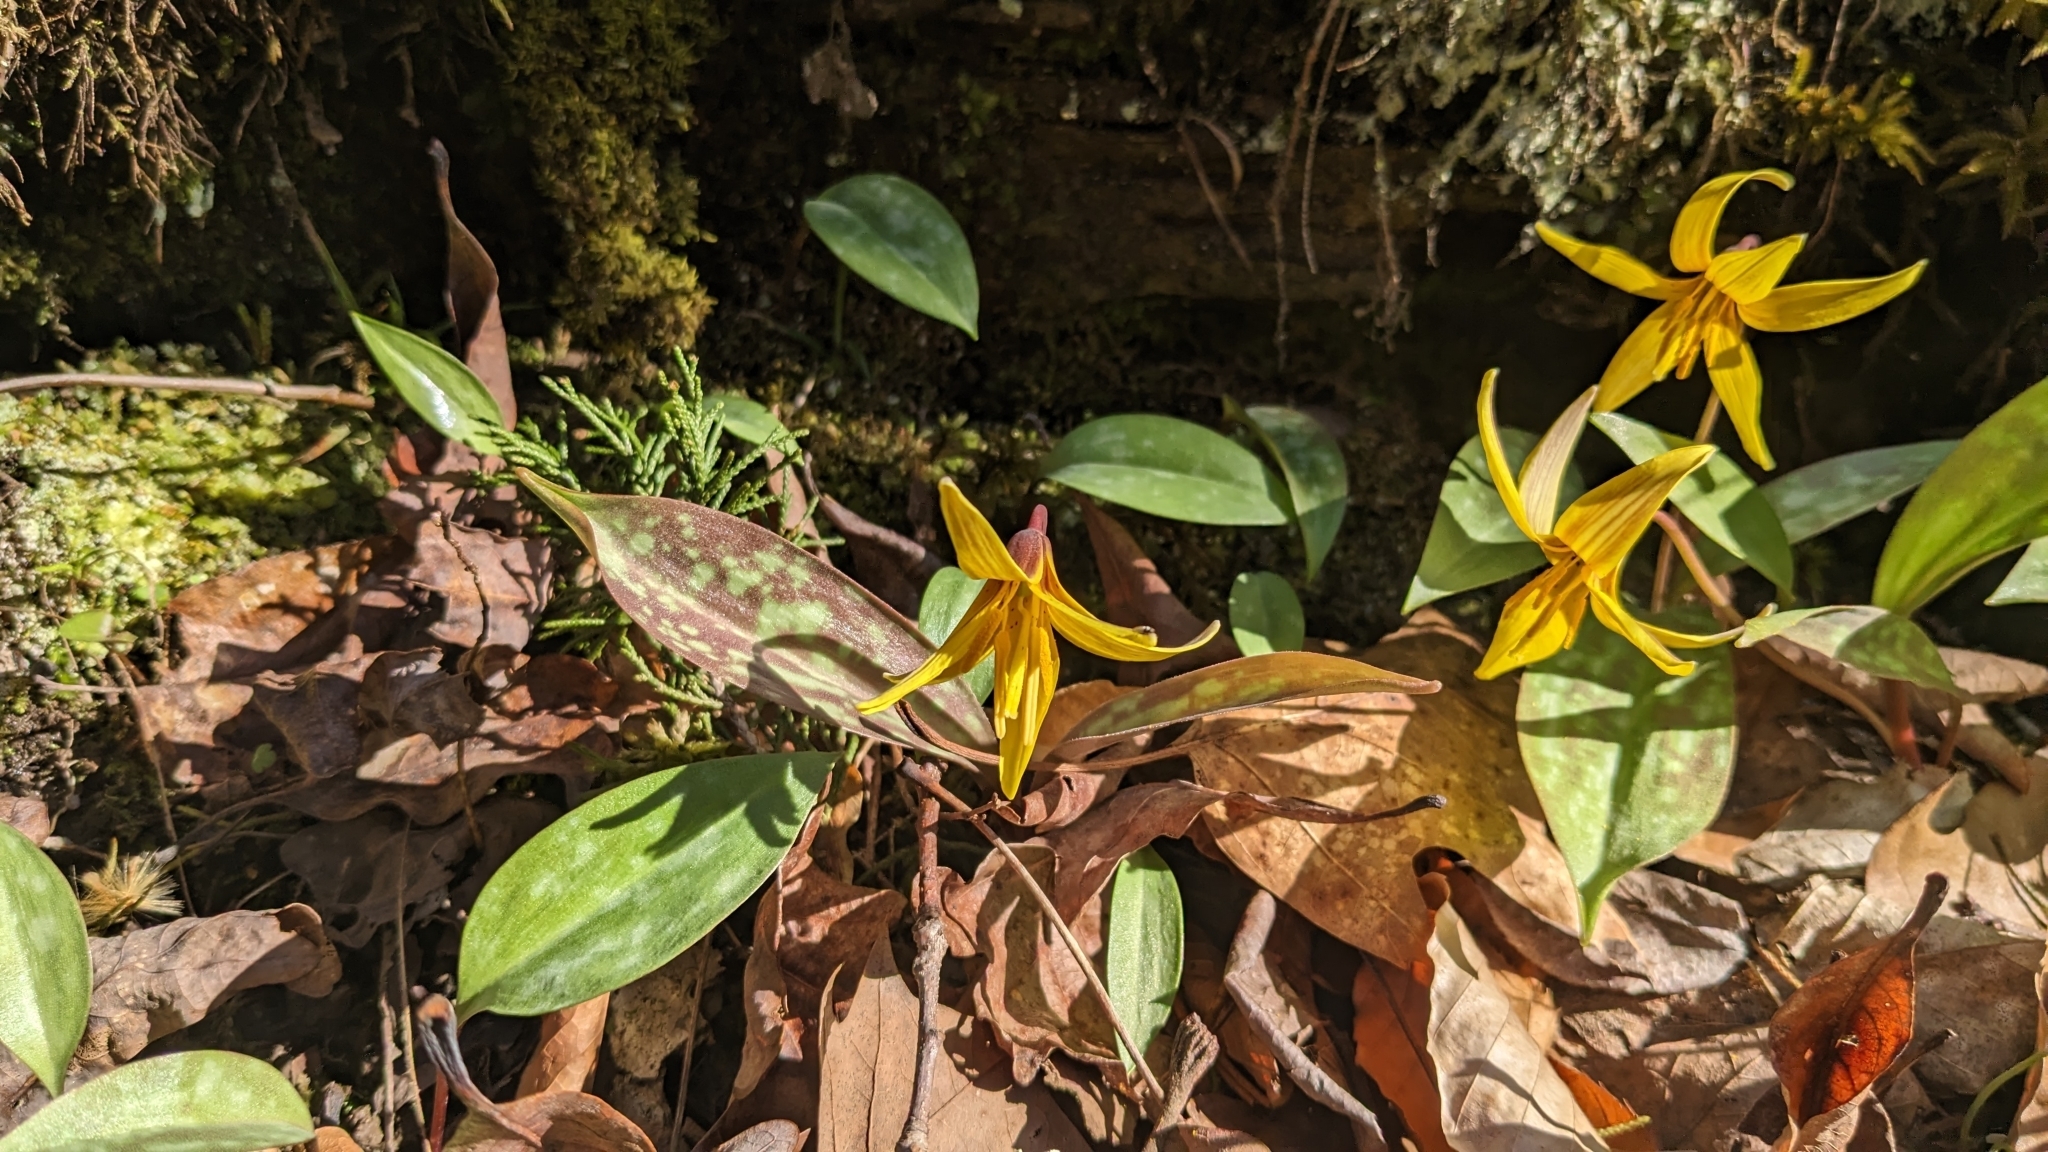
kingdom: Plantae
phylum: Tracheophyta
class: Liliopsida
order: Liliales
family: Liliaceae
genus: Erythronium
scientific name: Erythronium americanum
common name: Yellow adder's-tongue
